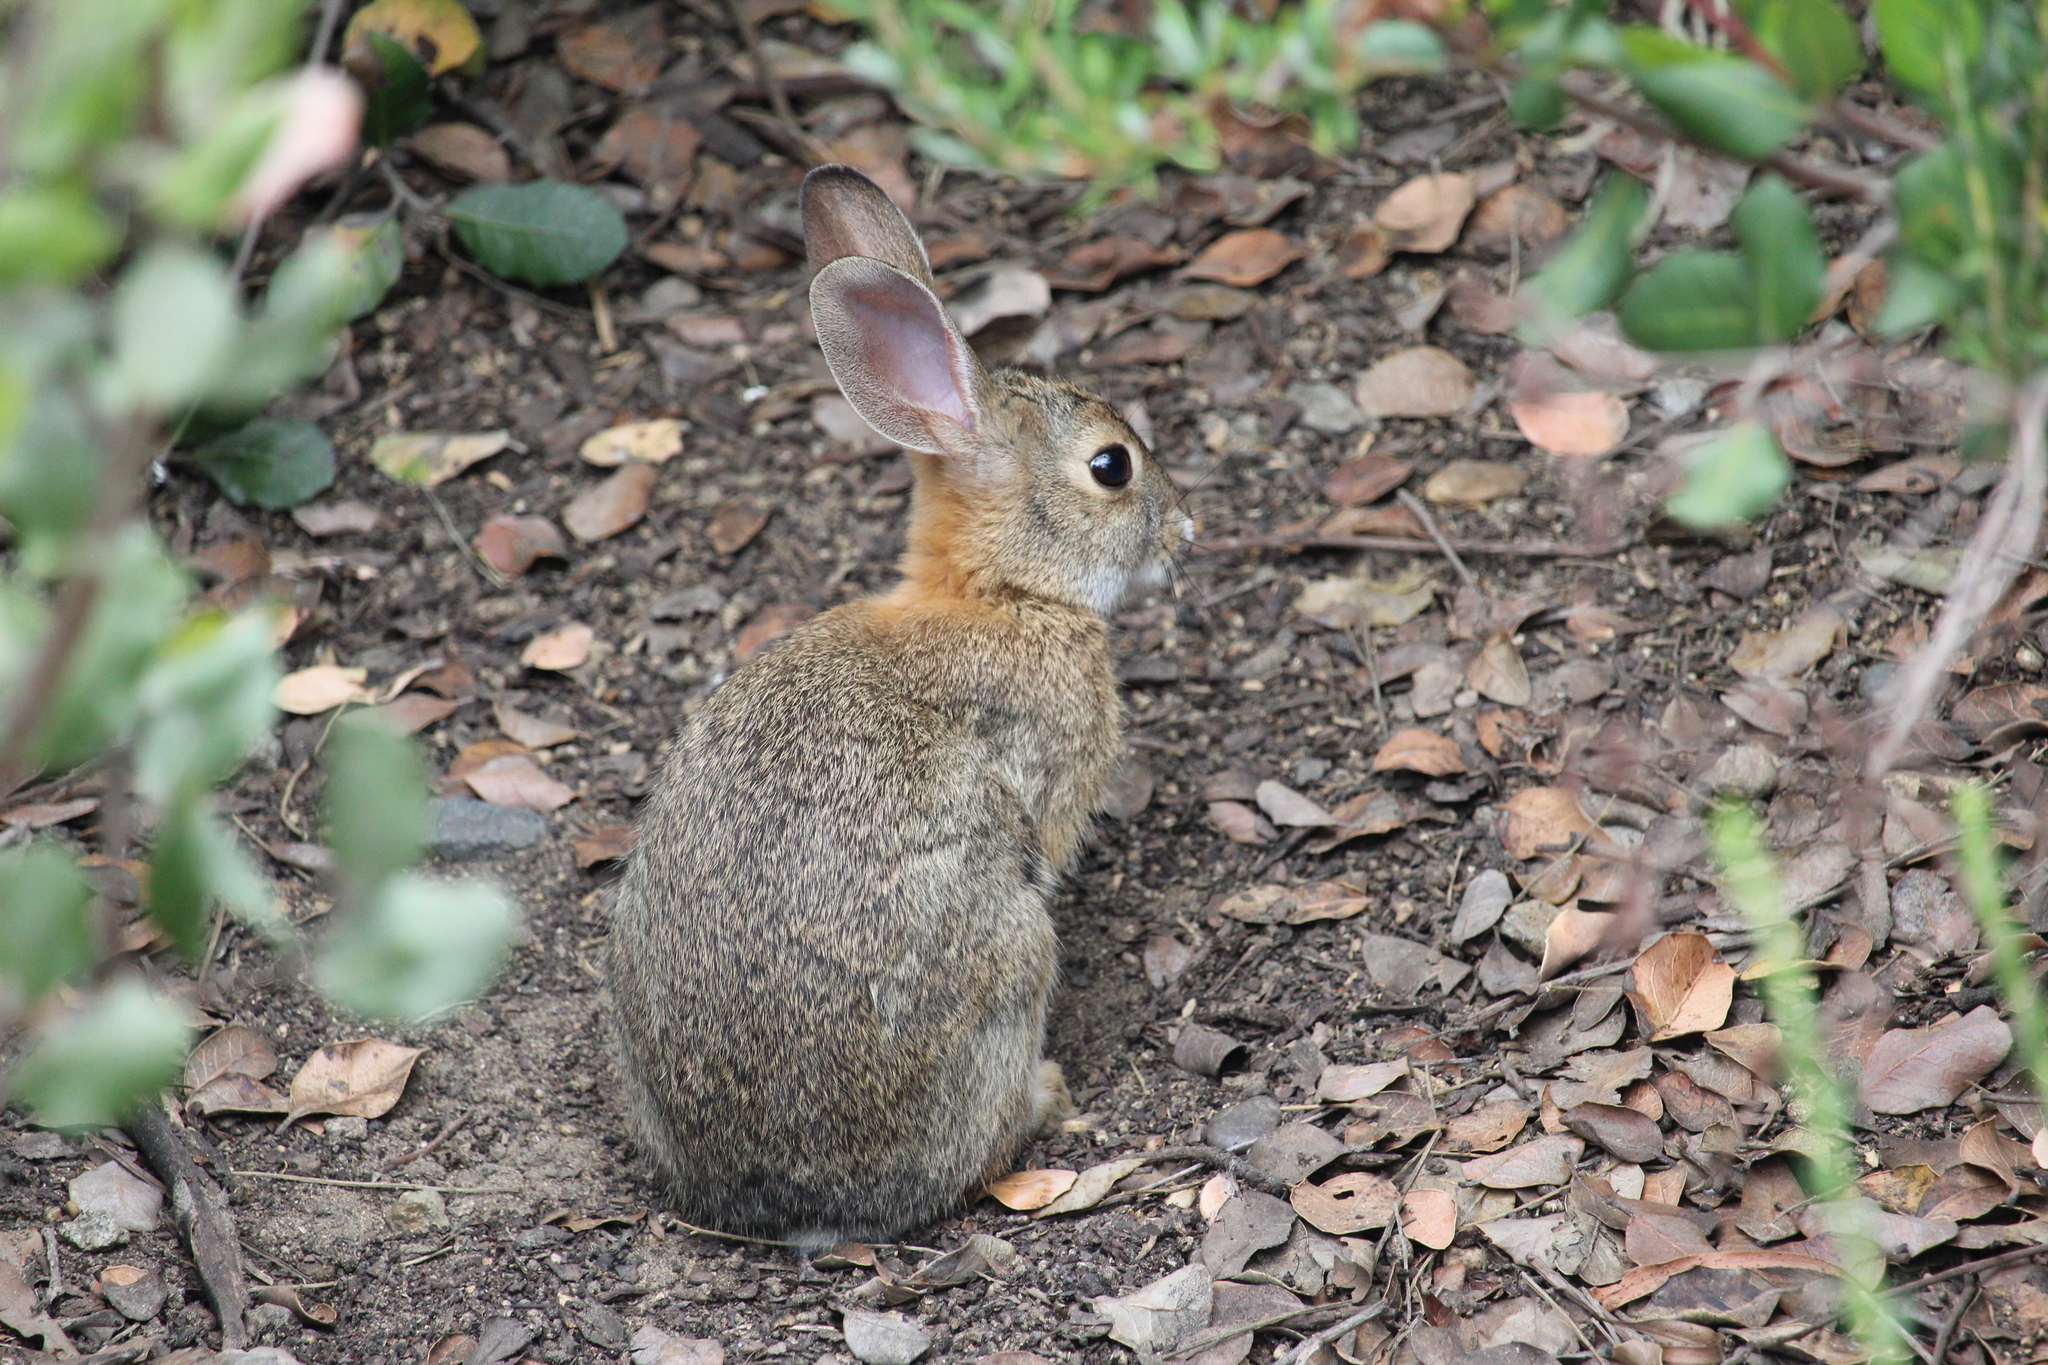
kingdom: Animalia
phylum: Chordata
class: Mammalia
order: Lagomorpha
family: Leporidae
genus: Sylvilagus
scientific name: Sylvilagus audubonii
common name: Desert cottontail
